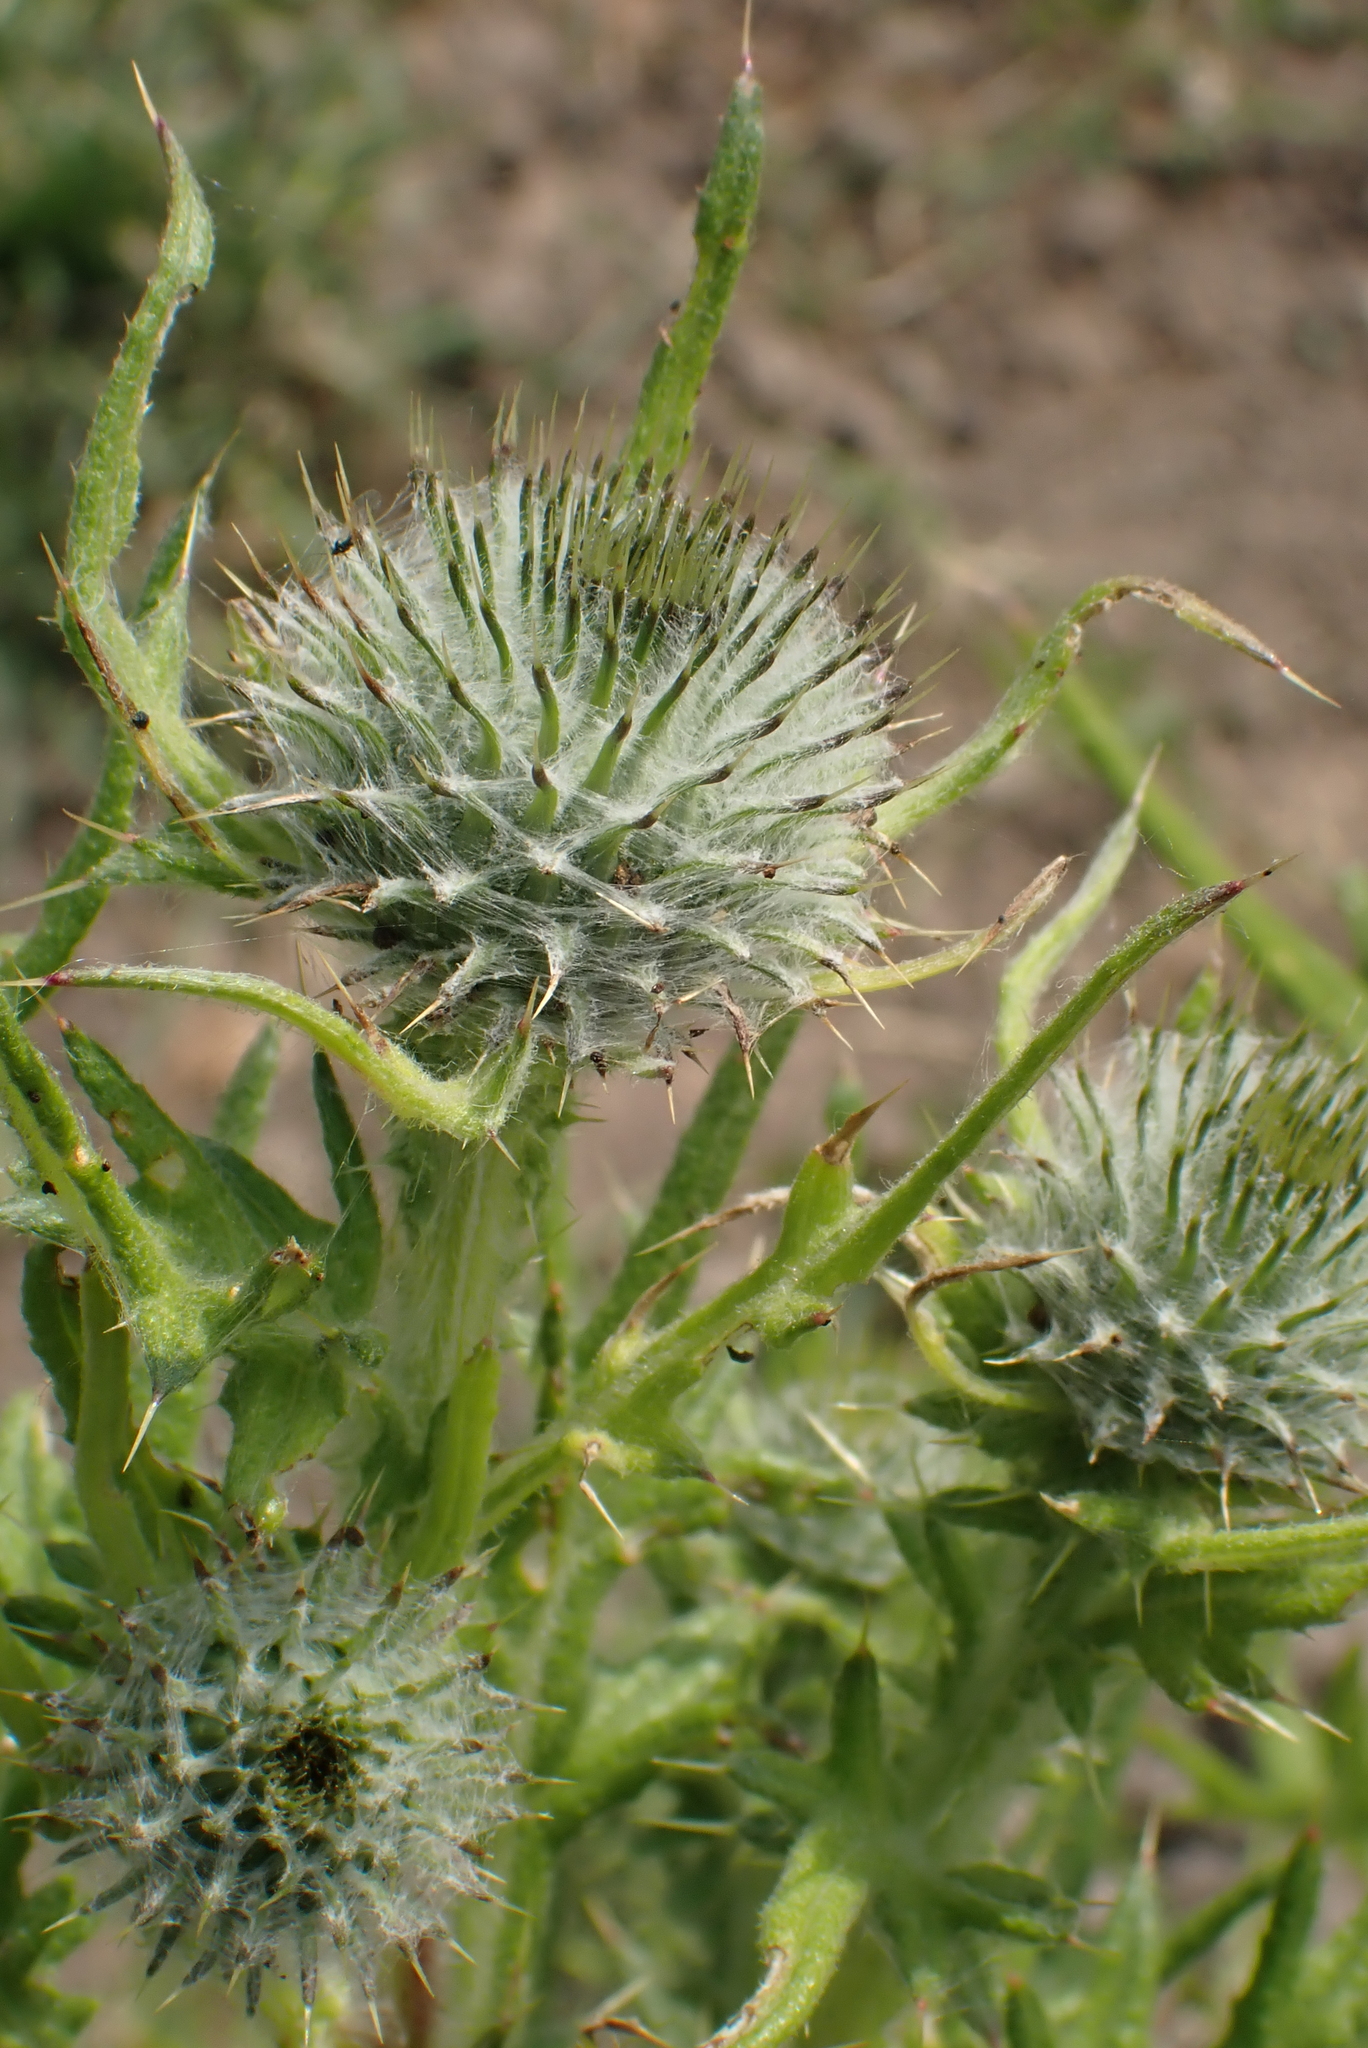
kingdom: Plantae
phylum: Tracheophyta
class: Magnoliopsida
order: Asterales
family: Asteraceae
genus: Cirsium
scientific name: Cirsium vulgare
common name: Bull thistle
